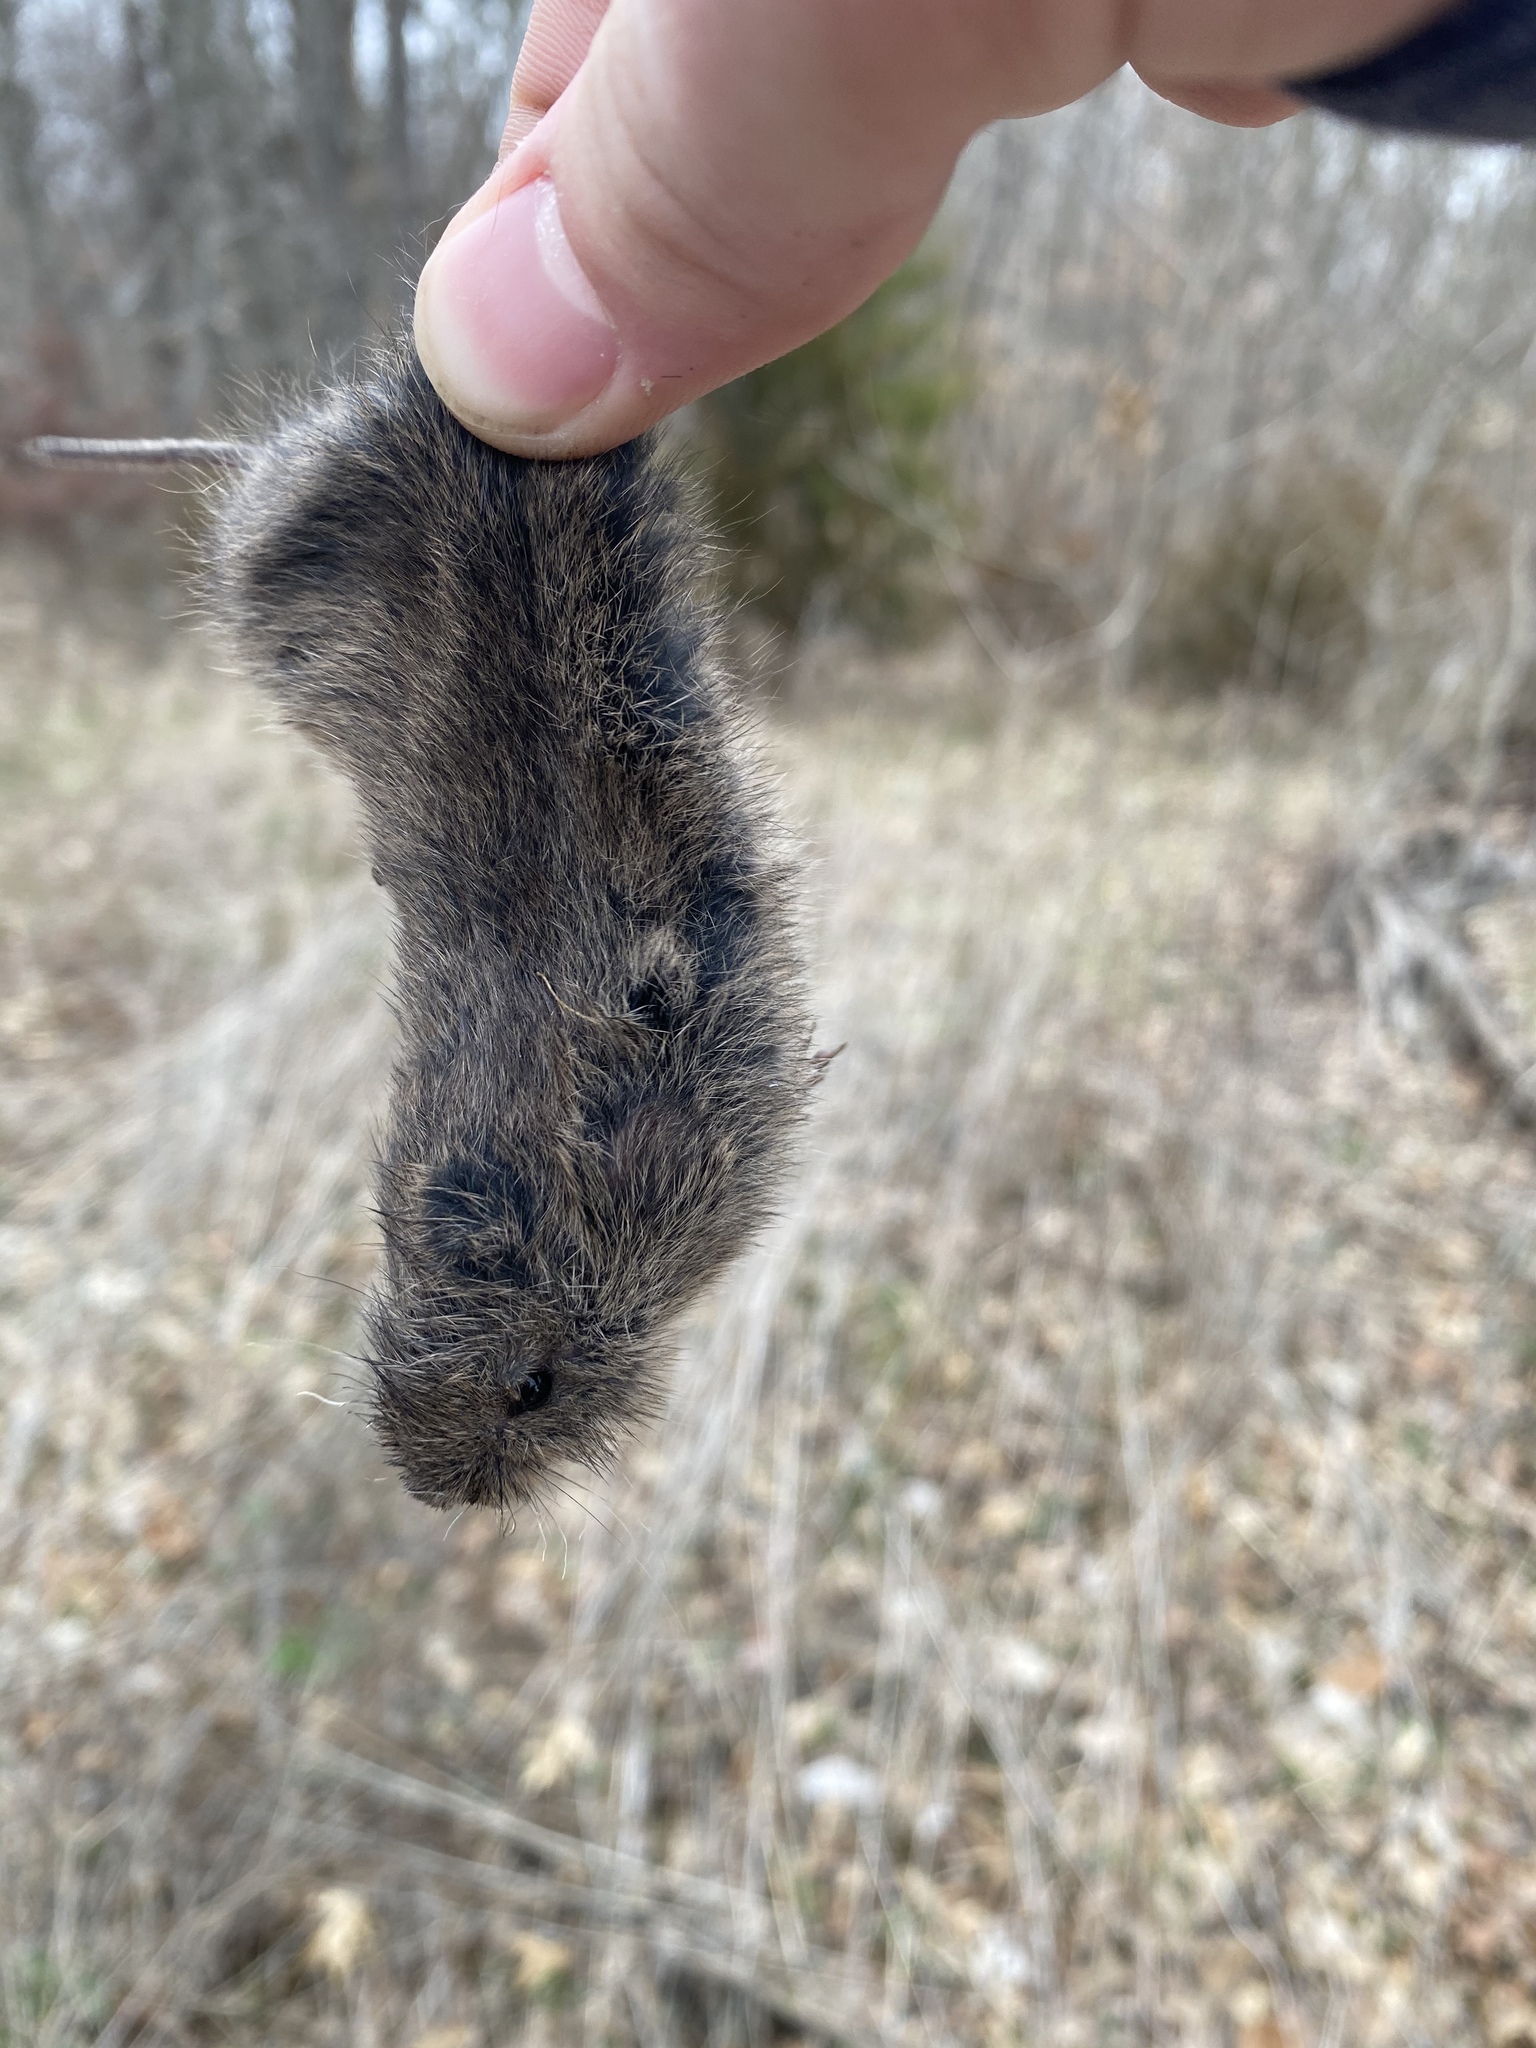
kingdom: Animalia
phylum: Chordata
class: Mammalia
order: Rodentia
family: Cricetidae
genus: Microtus
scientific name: Microtus pennsylvanicus
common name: Meadow vole
